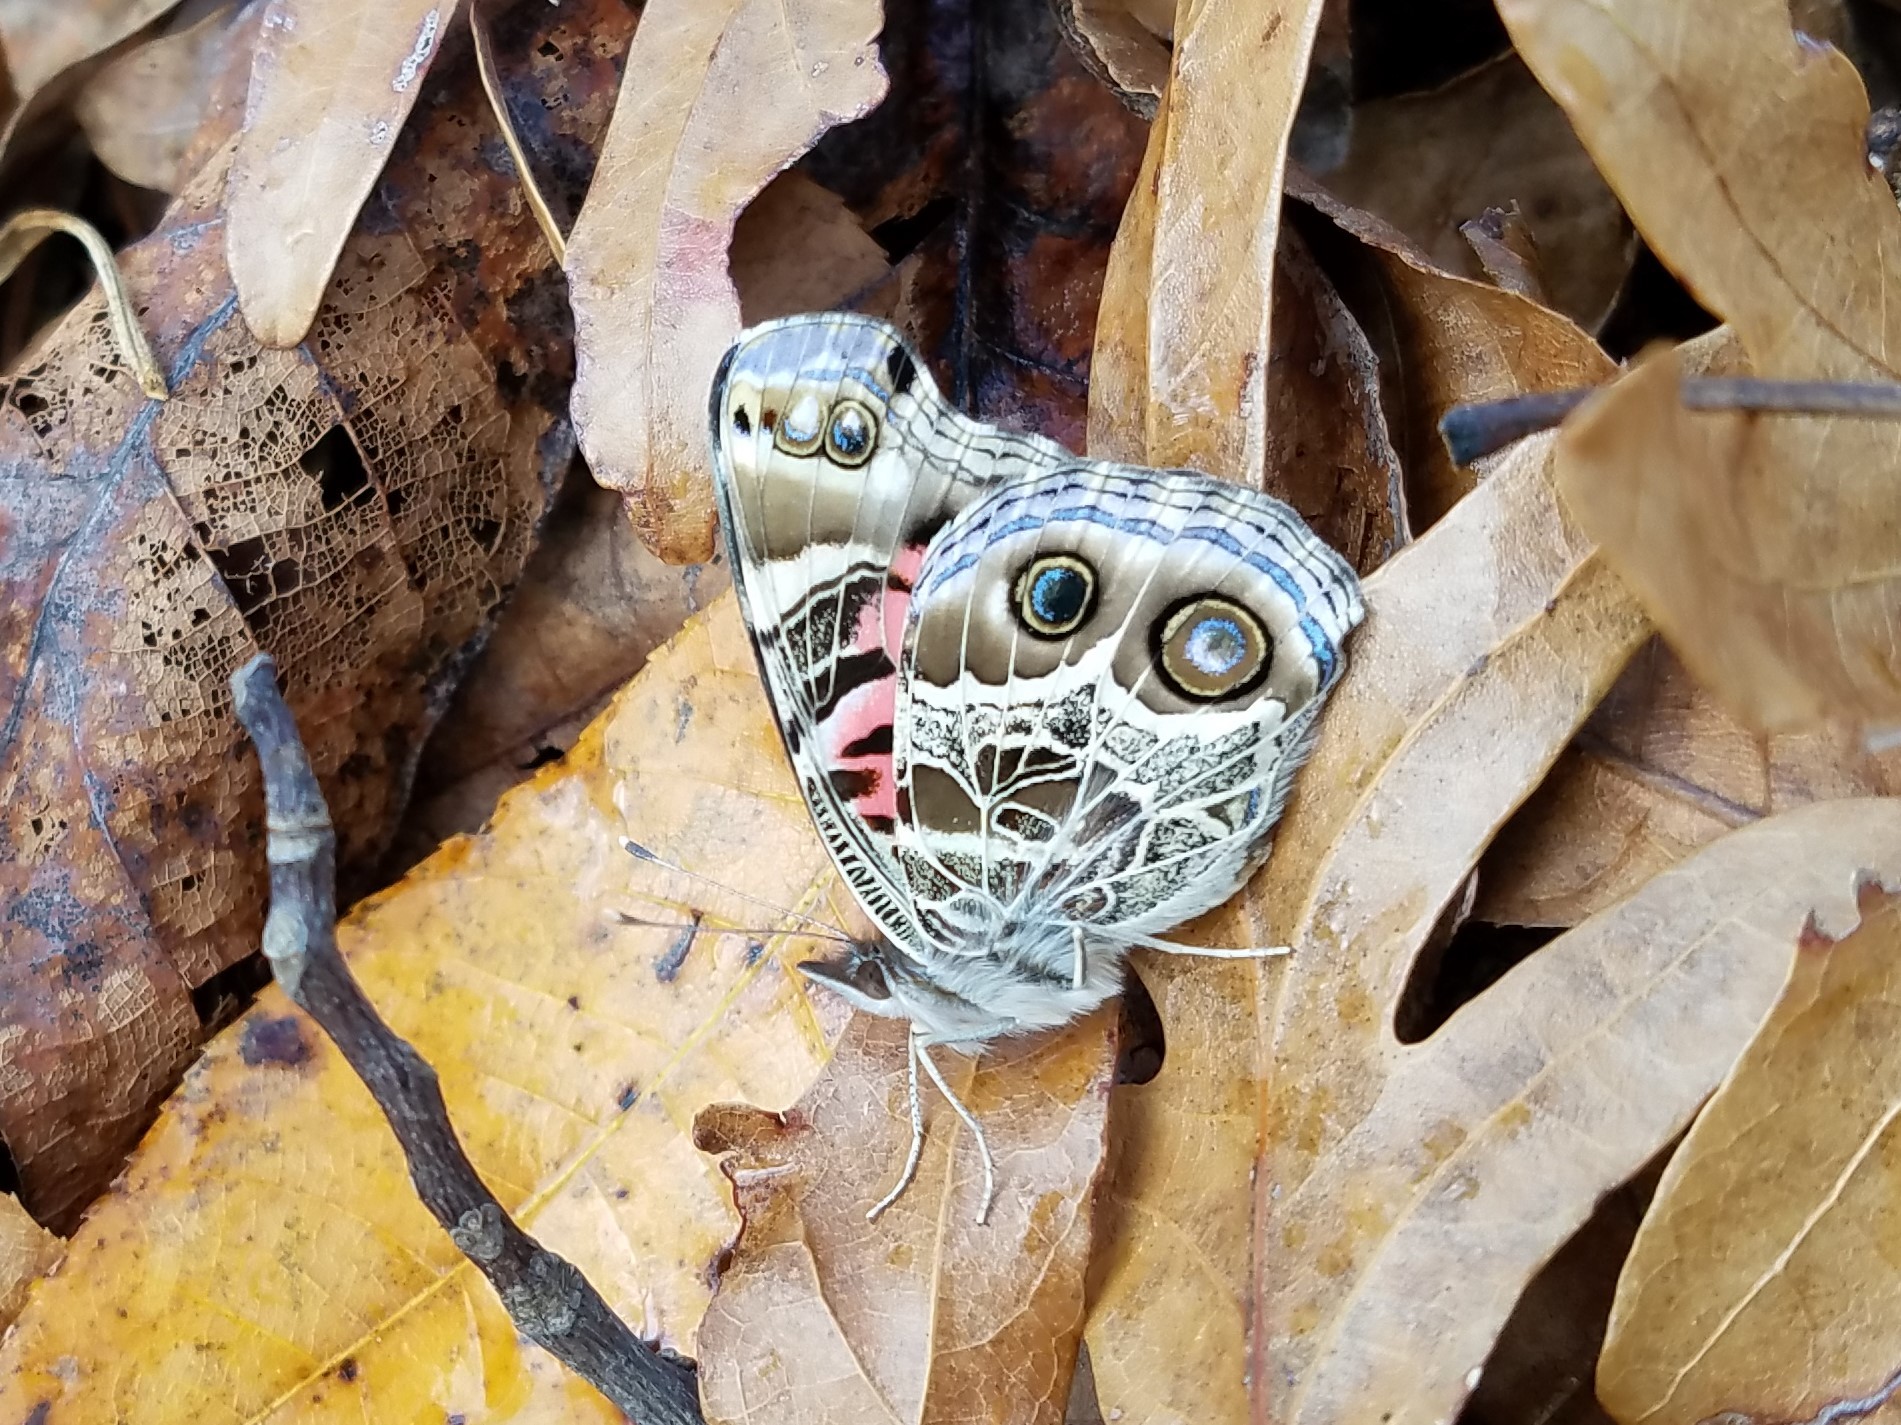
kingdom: Animalia
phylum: Arthropoda
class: Insecta
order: Lepidoptera
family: Nymphalidae
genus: Vanessa
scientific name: Vanessa virginiensis
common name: American lady
